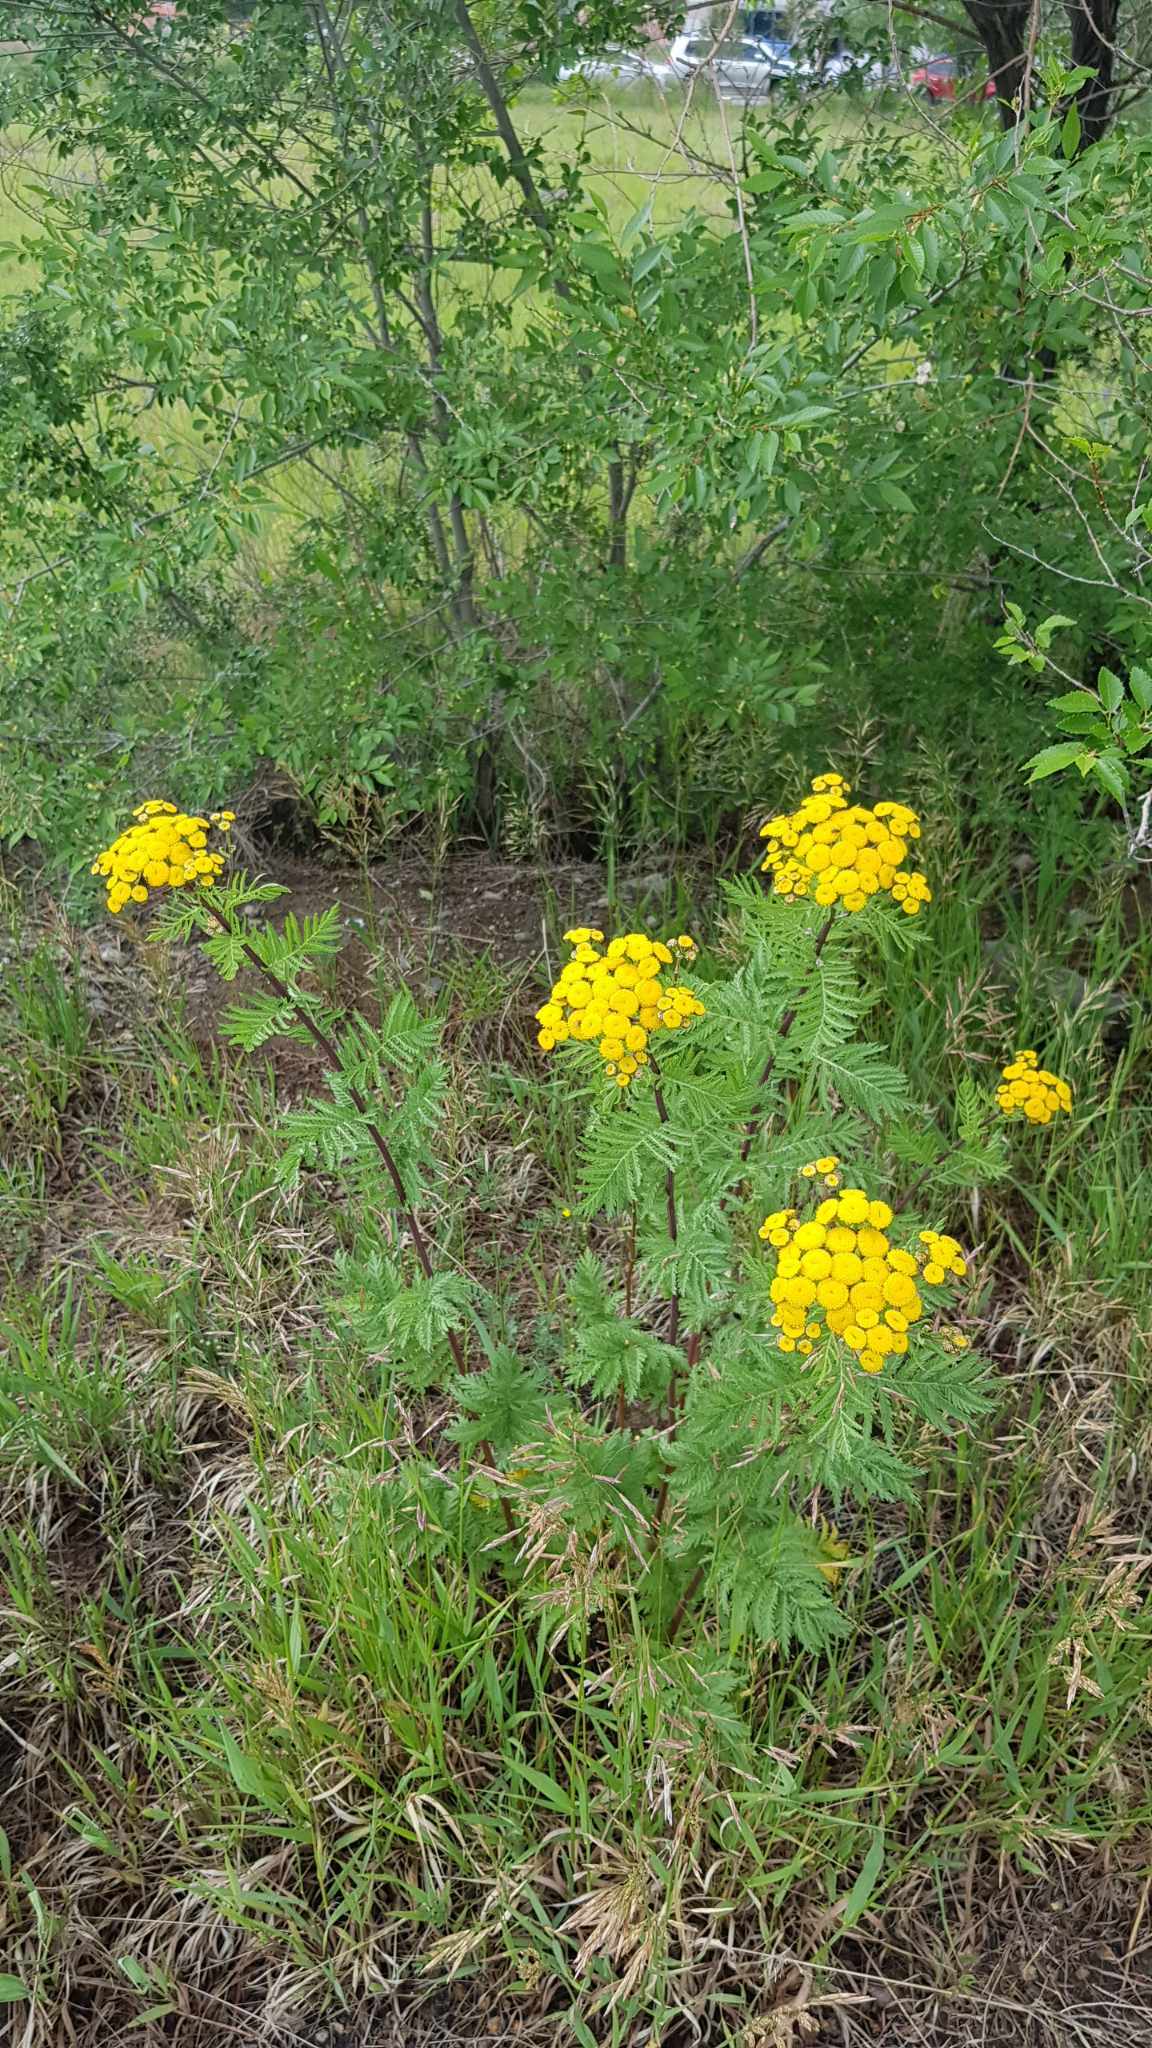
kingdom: Plantae
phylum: Tracheophyta
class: Magnoliopsida
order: Asterales
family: Asteraceae
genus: Tanacetum
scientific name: Tanacetum vulgare
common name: Common tansy
